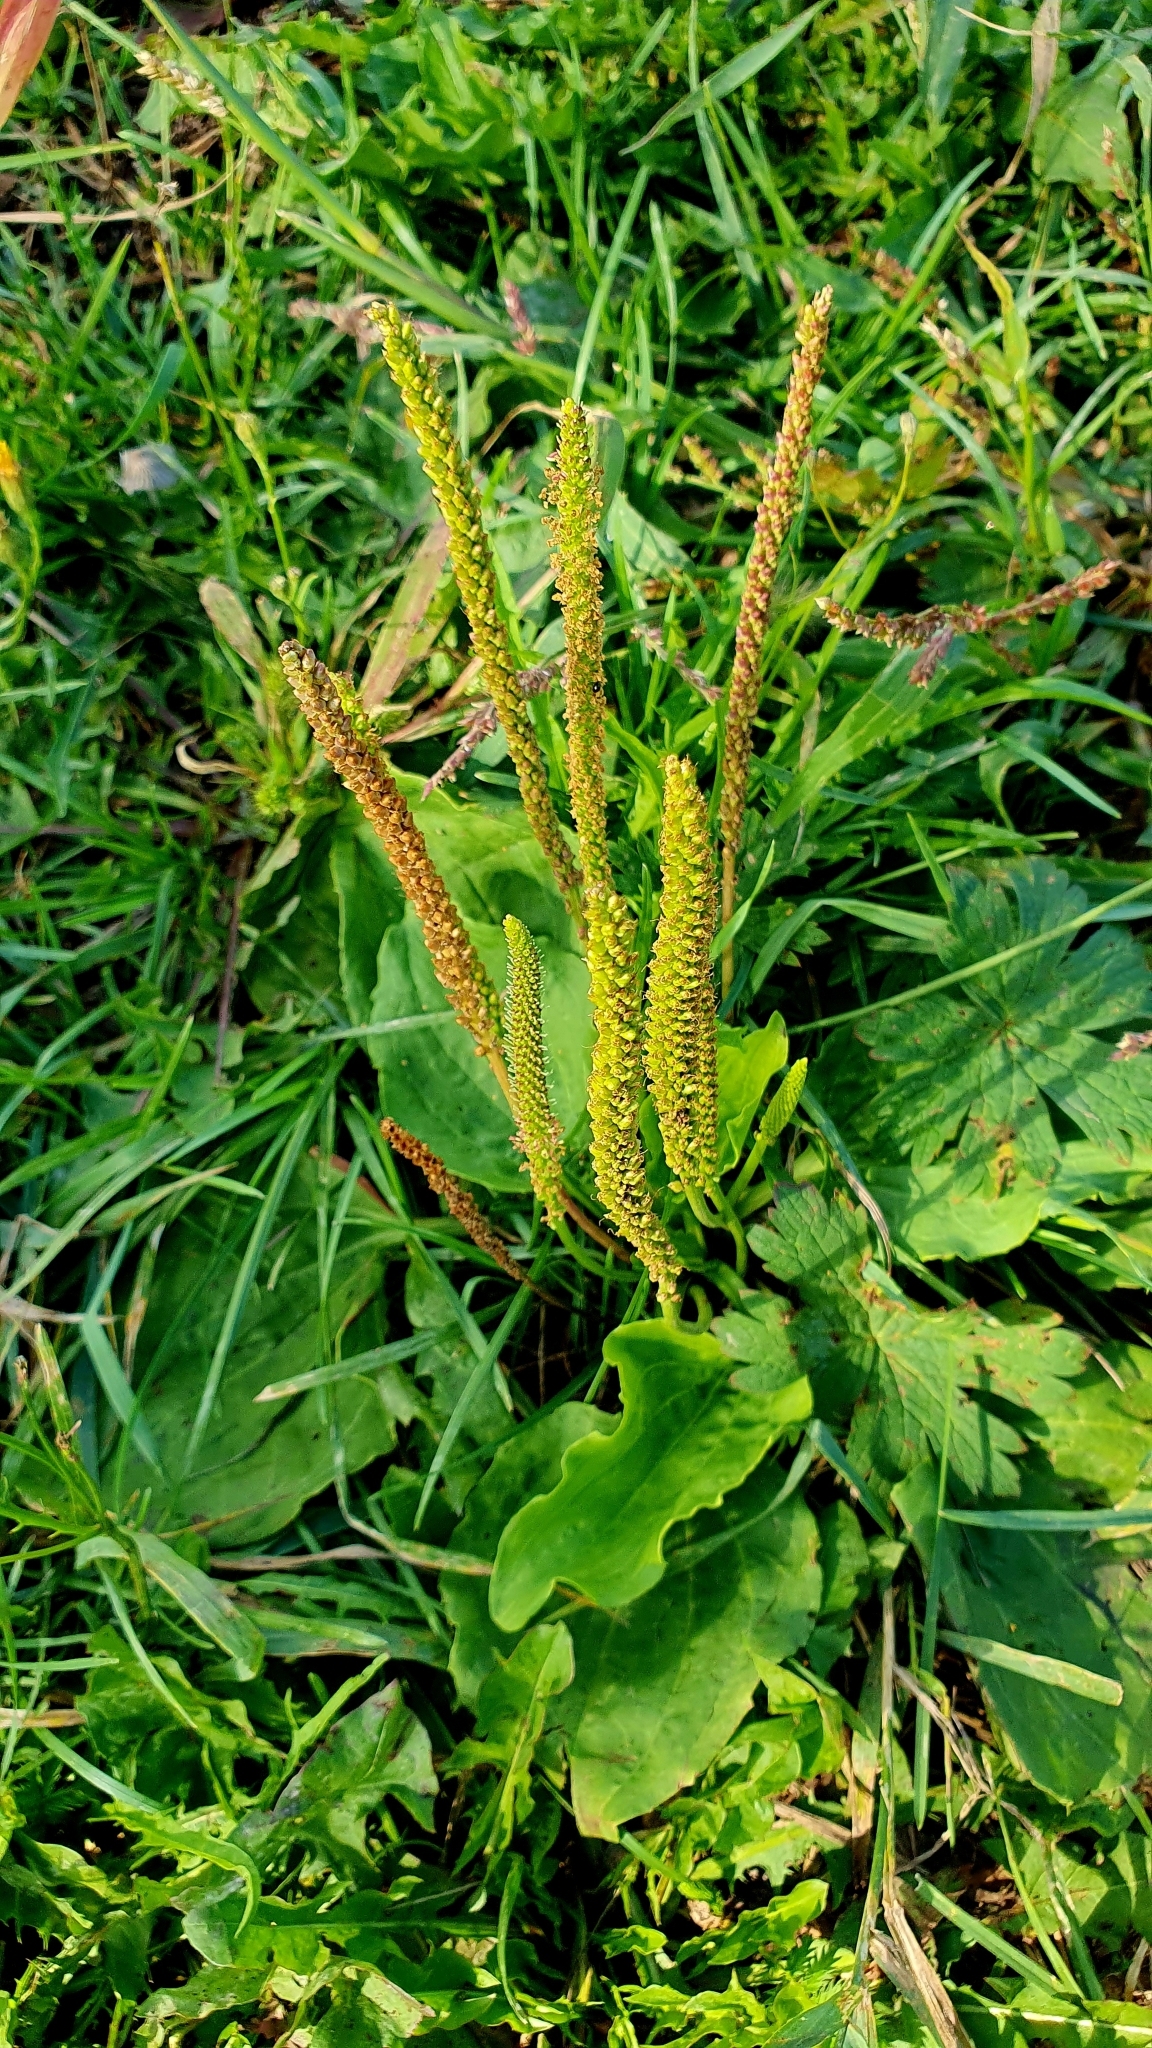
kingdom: Plantae
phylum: Tracheophyta
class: Magnoliopsida
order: Lamiales
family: Plantaginaceae
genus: Plantago
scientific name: Plantago major
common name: Common plantain
